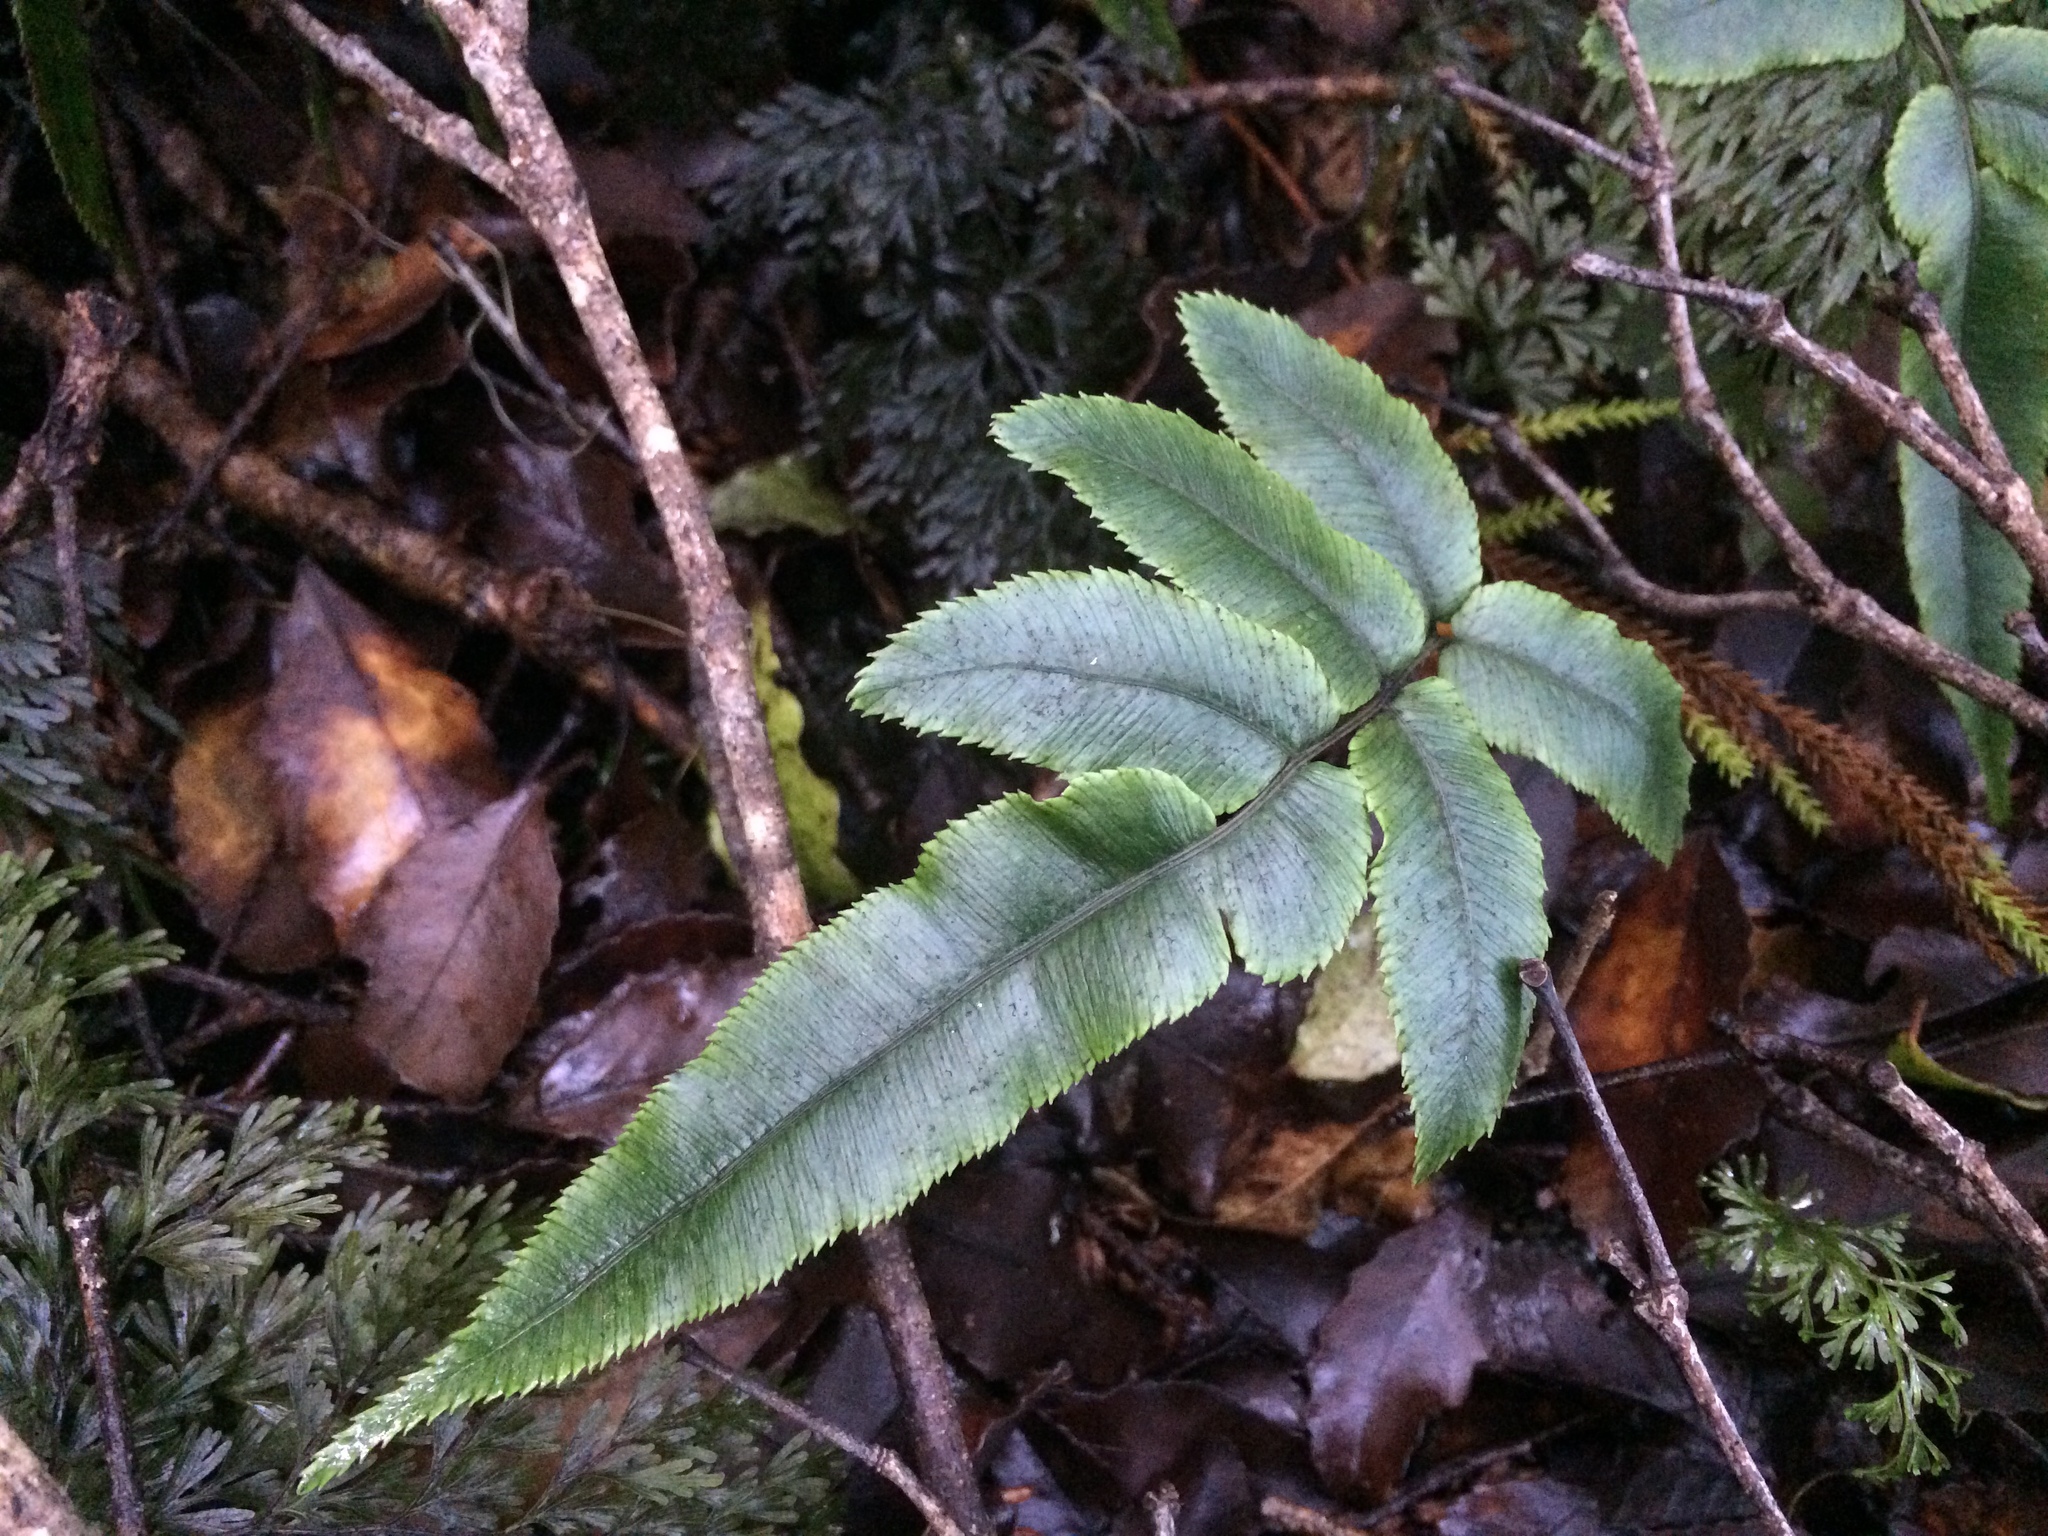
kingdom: Plantae
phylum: Tracheophyta
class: Polypodiopsida
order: Polypodiales
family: Blechnaceae
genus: Parablechnum
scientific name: Parablechnum procerum
